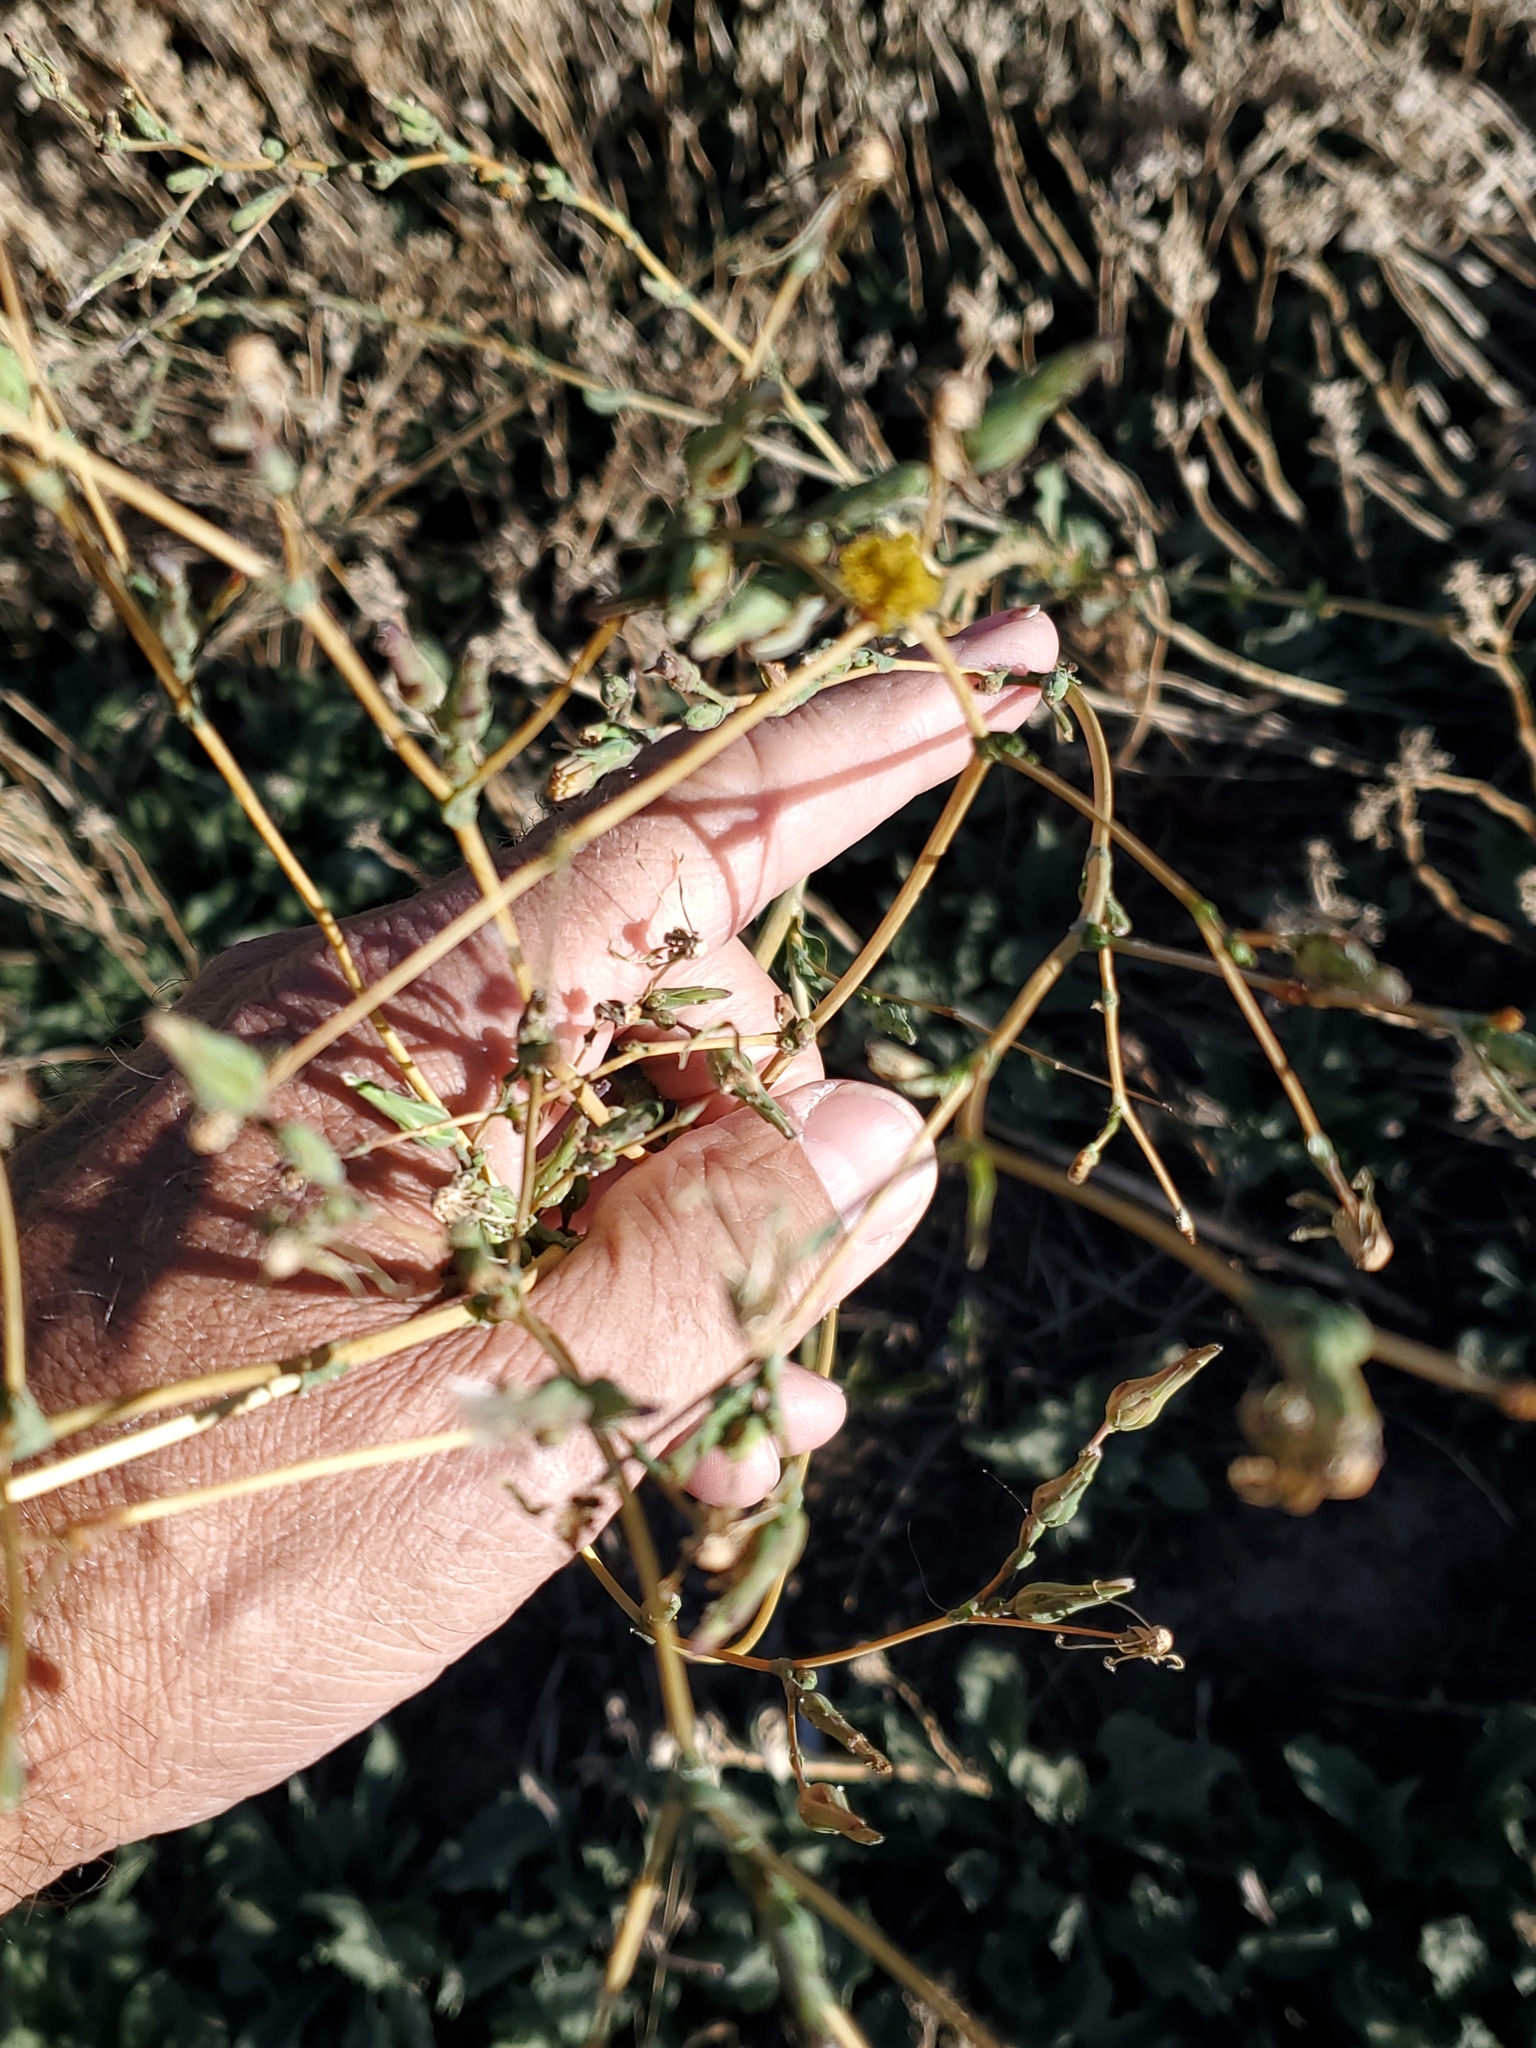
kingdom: Plantae
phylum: Tracheophyta
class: Magnoliopsida
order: Asterales
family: Asteraceae
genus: Lactuca
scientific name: Lactuca serriola
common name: Prickly lettuce
